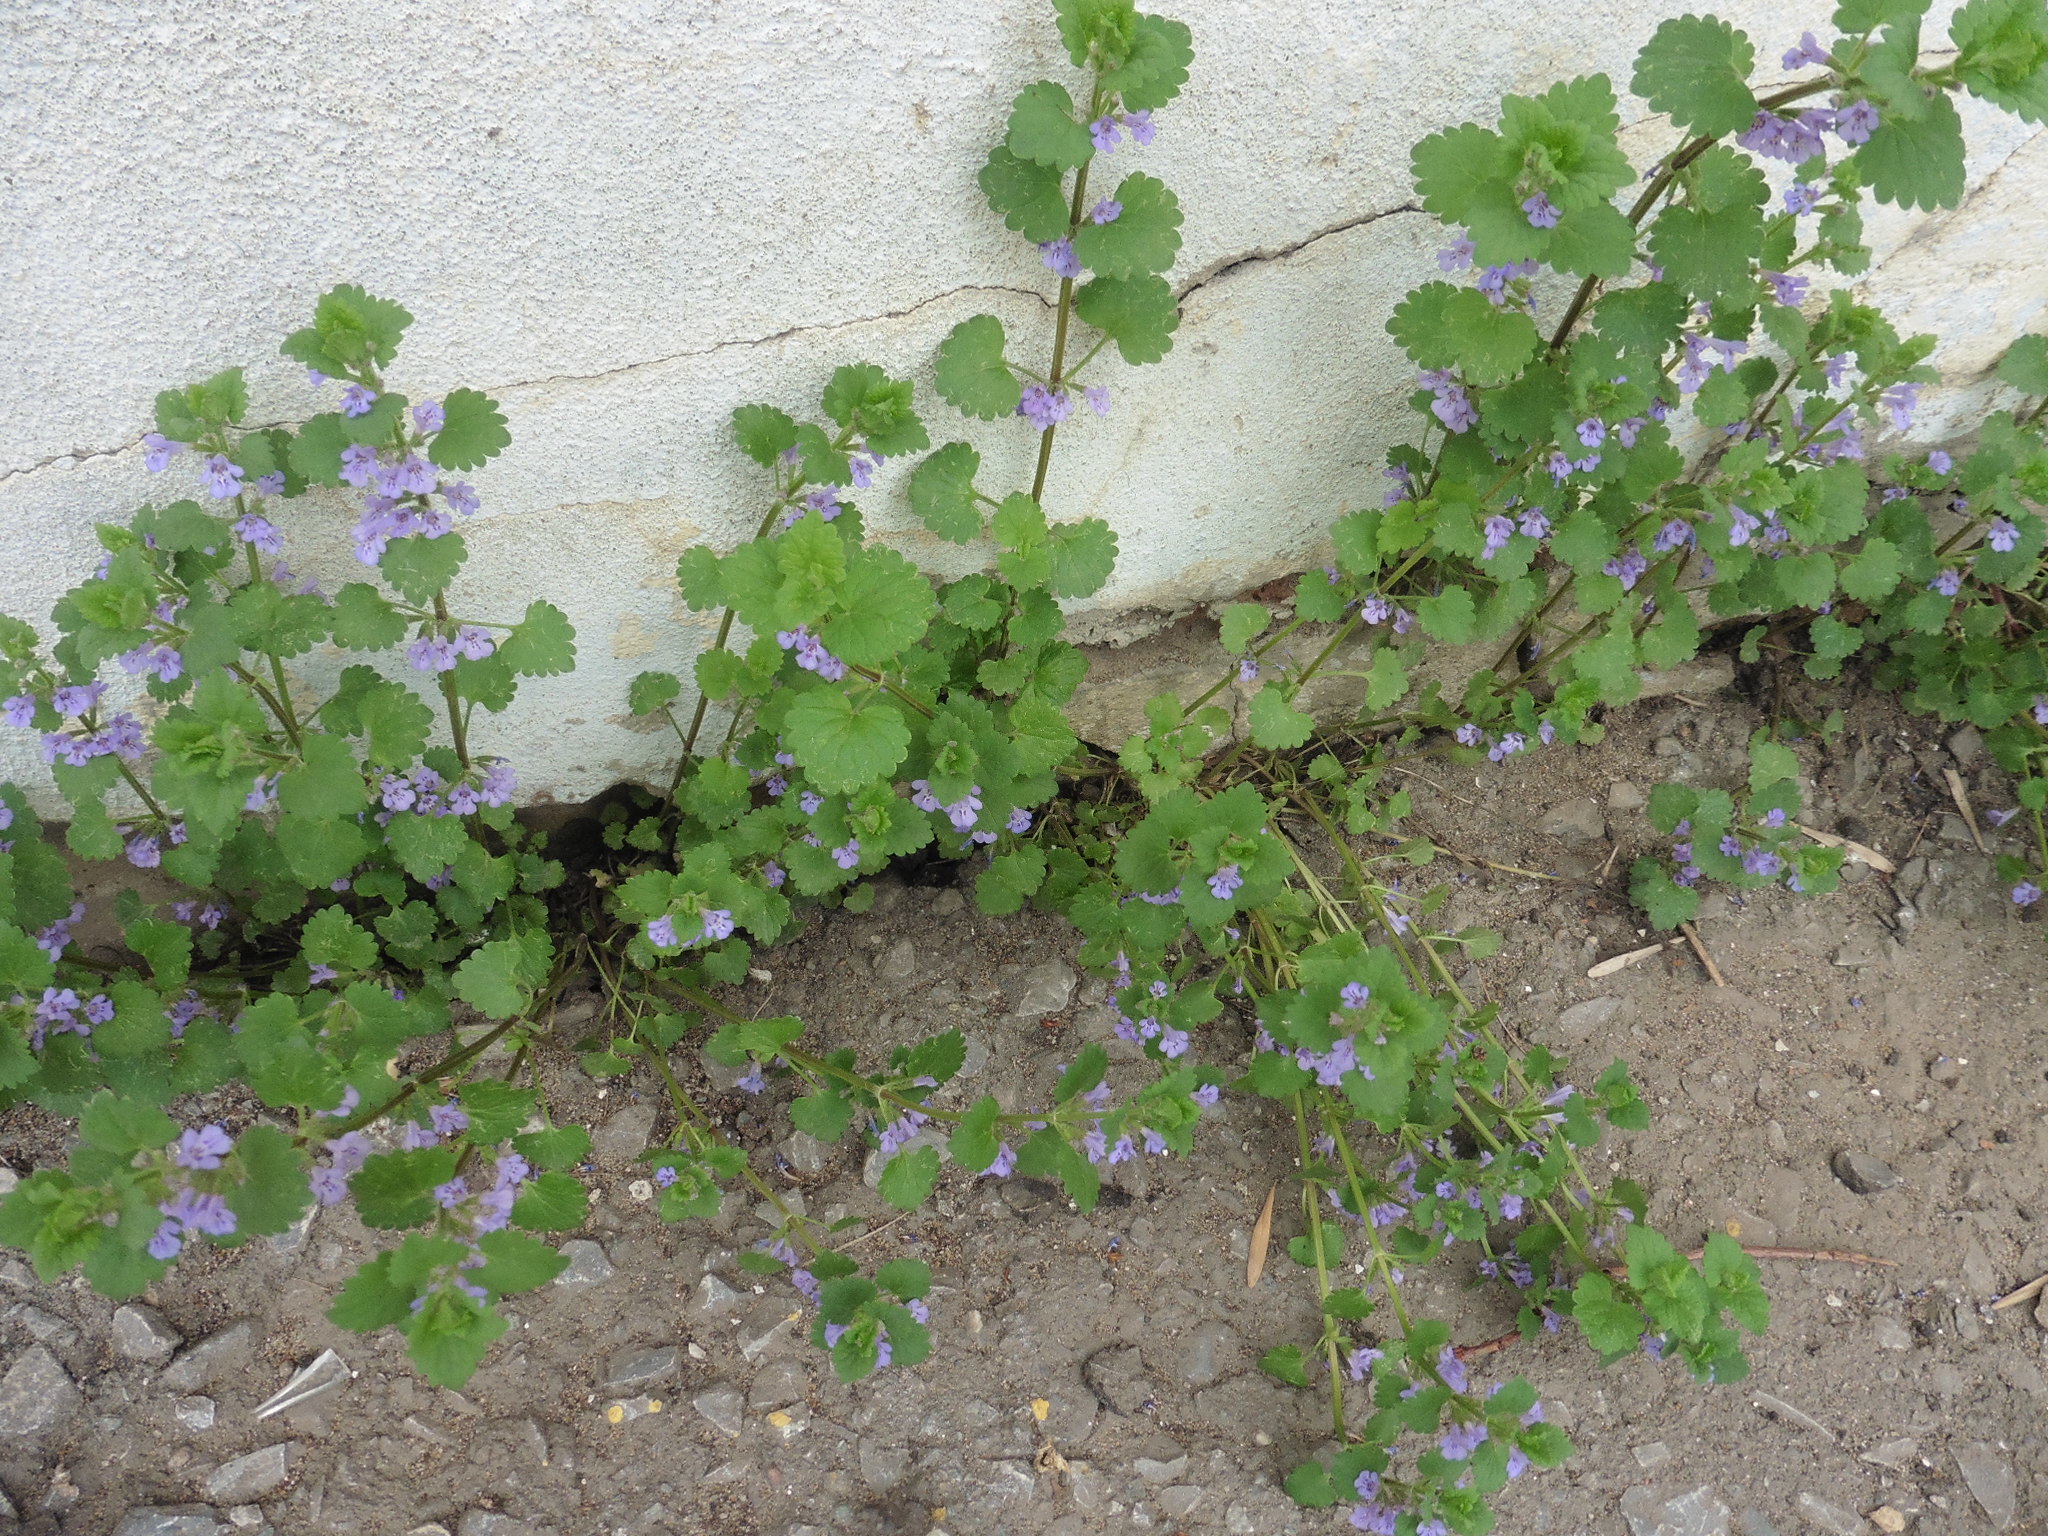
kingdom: Plantae
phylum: Tracheophyta
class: Magnoliopsida
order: Lamiales
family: Lamiaceae
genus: Glechoma
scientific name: Glechoma hederacea
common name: Ground ivy
